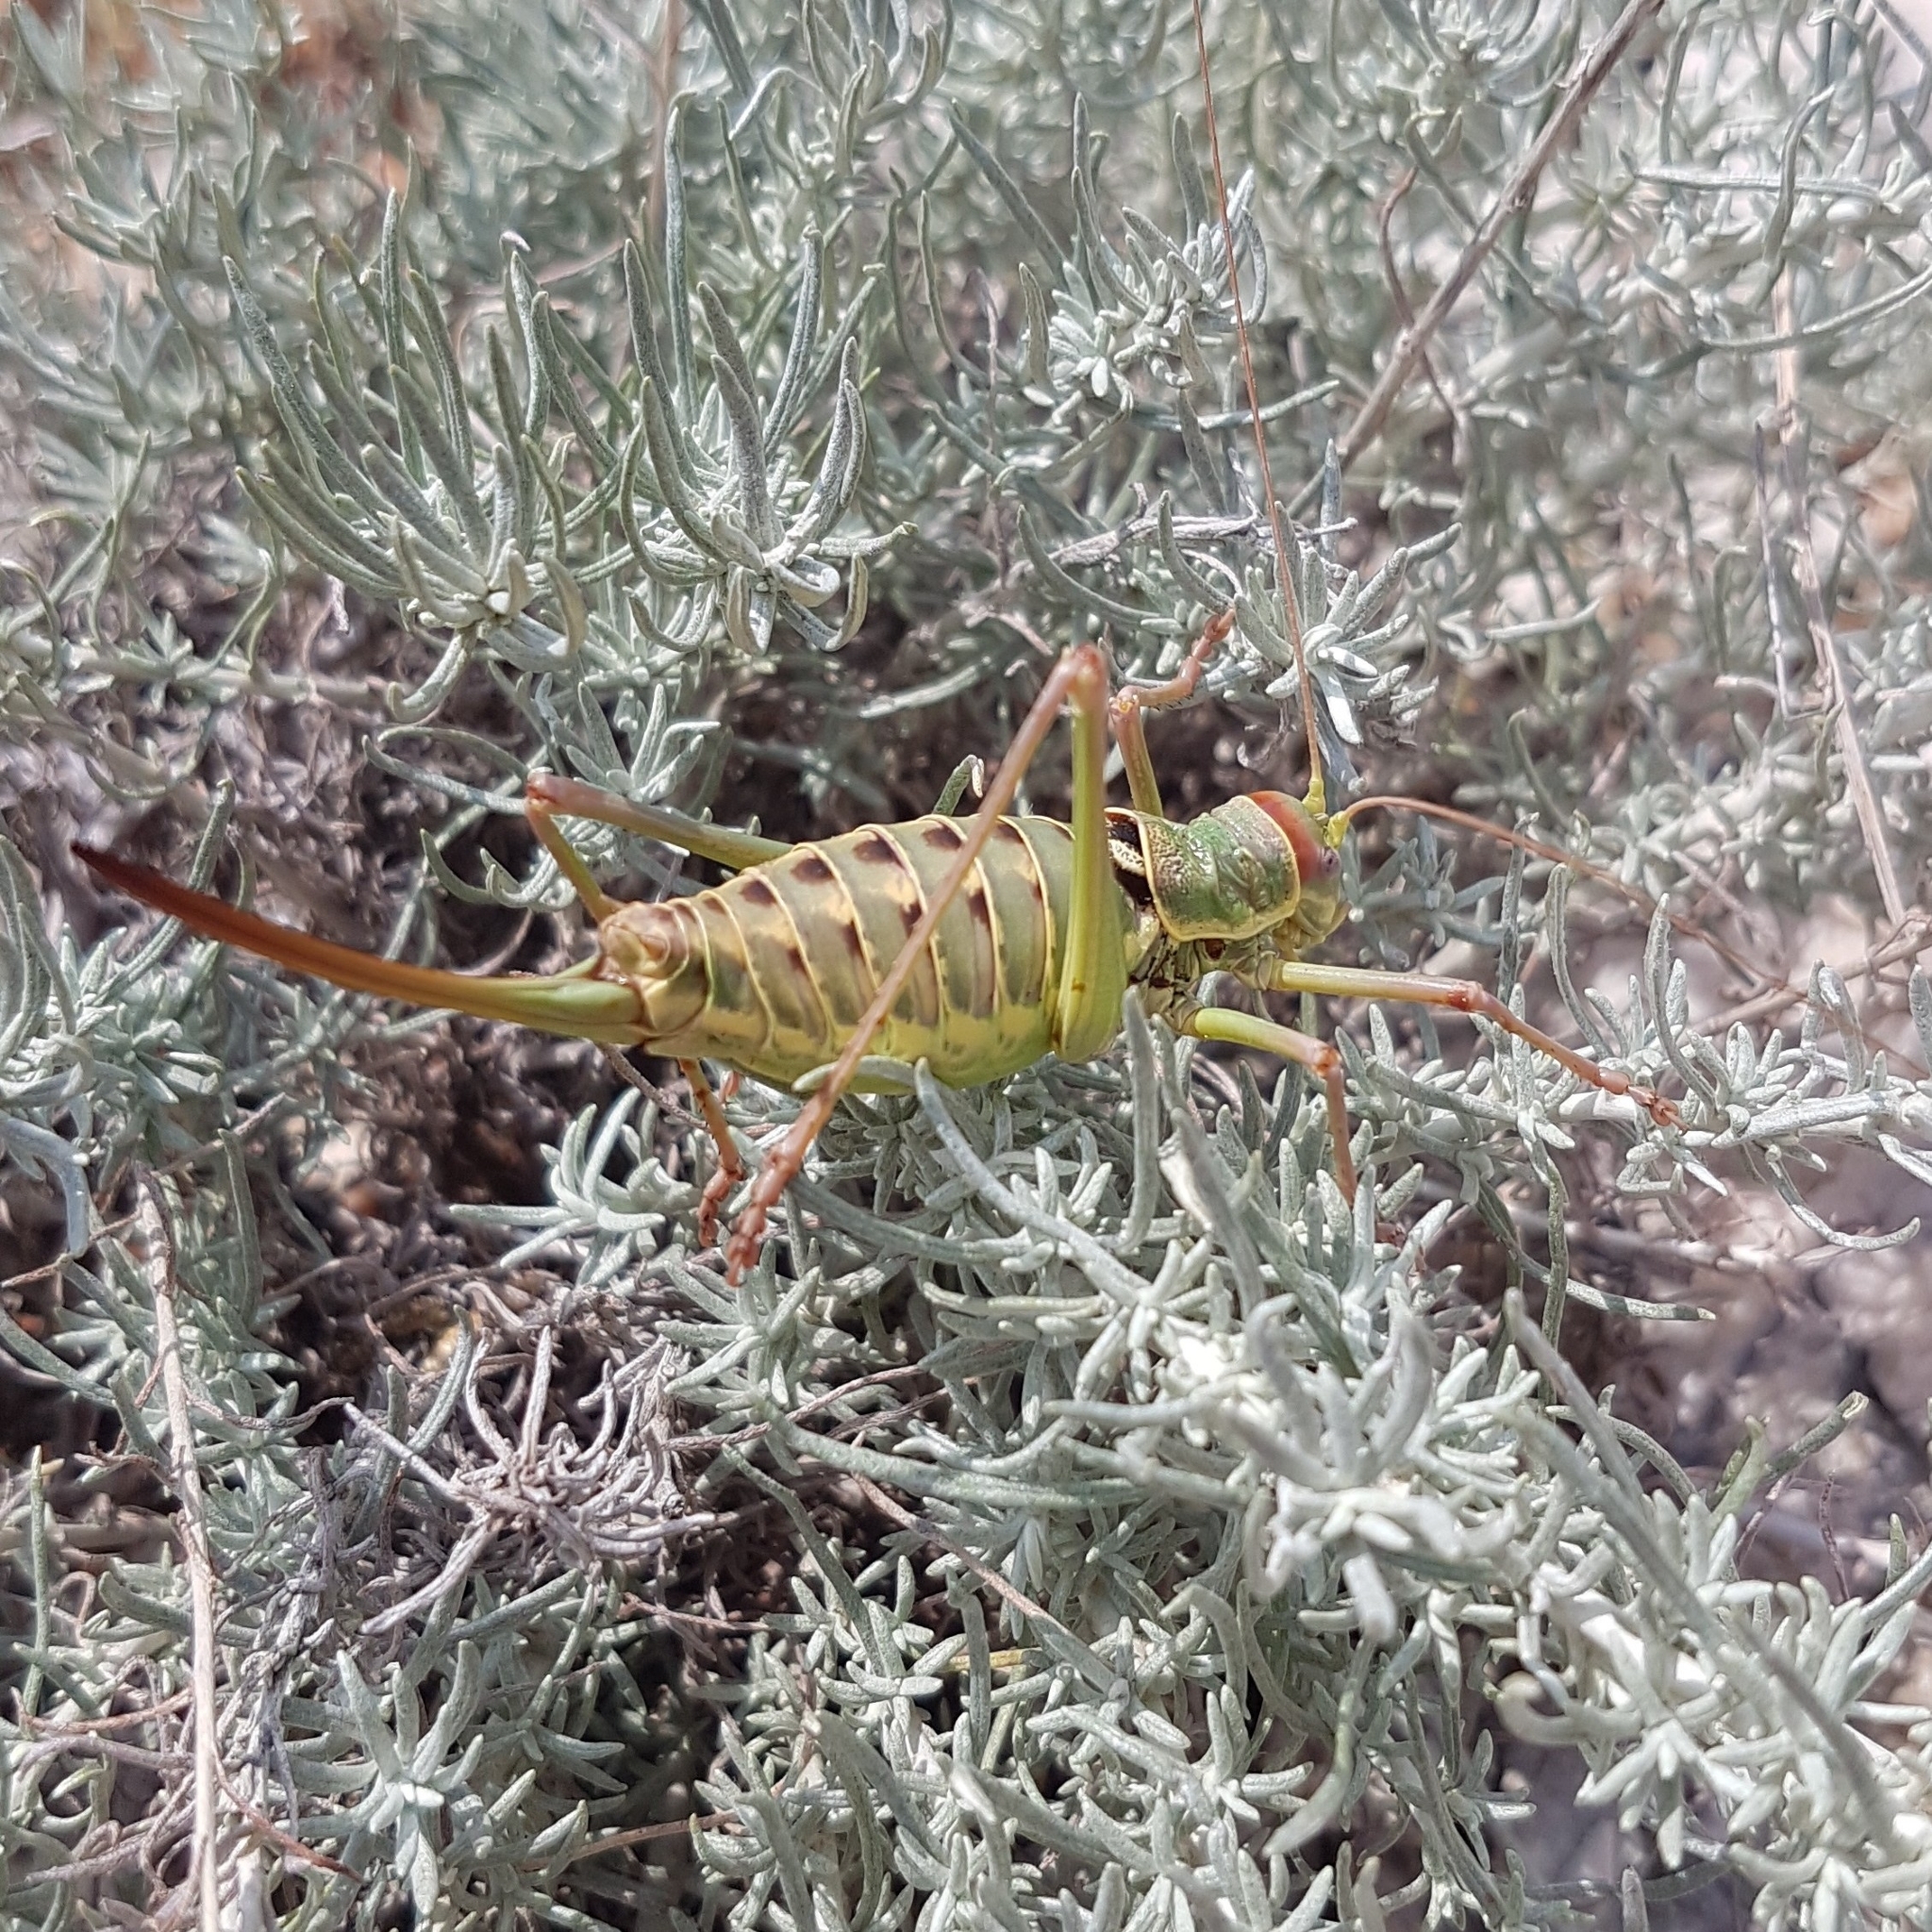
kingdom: Animalia
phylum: Arthropoda
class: Insecta
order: Orthoptera
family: Tettigoniidae
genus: Dinarippiger
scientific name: Dinarippiger discoidalis
